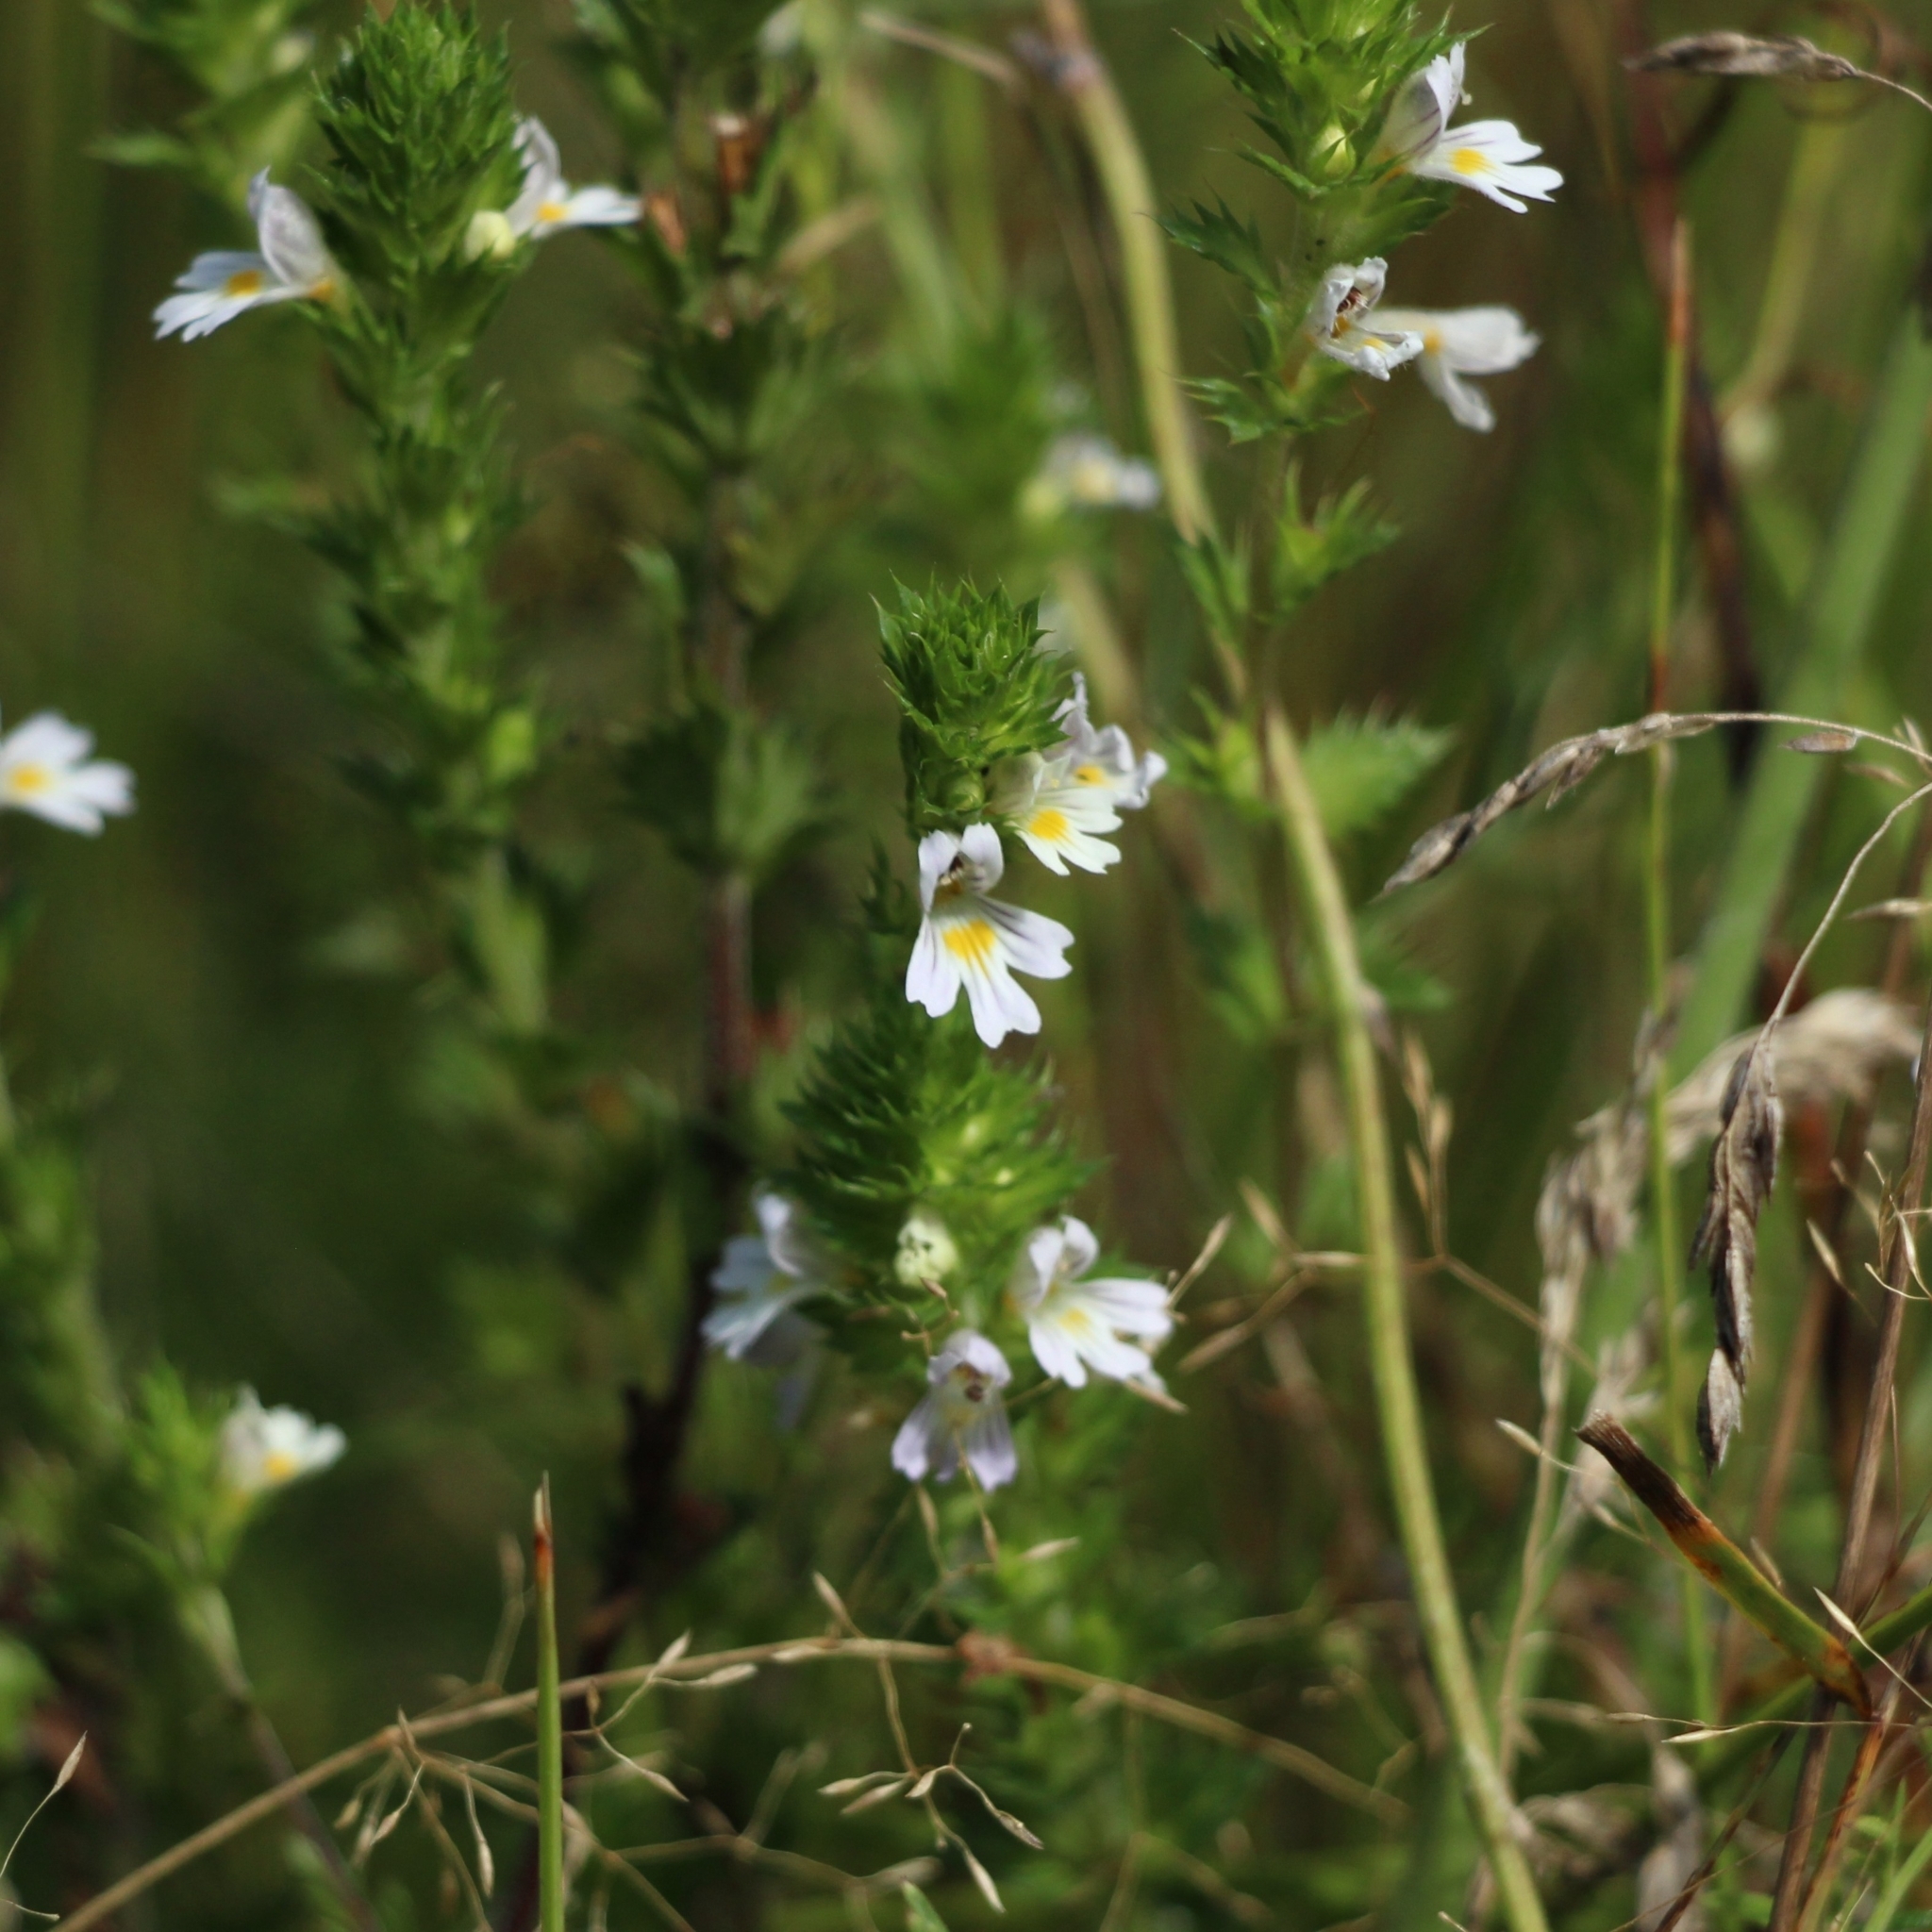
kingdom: Plantae
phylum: Tracheophyta
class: Magnoliopsida
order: Lamiales
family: Orobanchaceae
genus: Euphrasia
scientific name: Euphrasia stricta
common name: Drug eyebright
